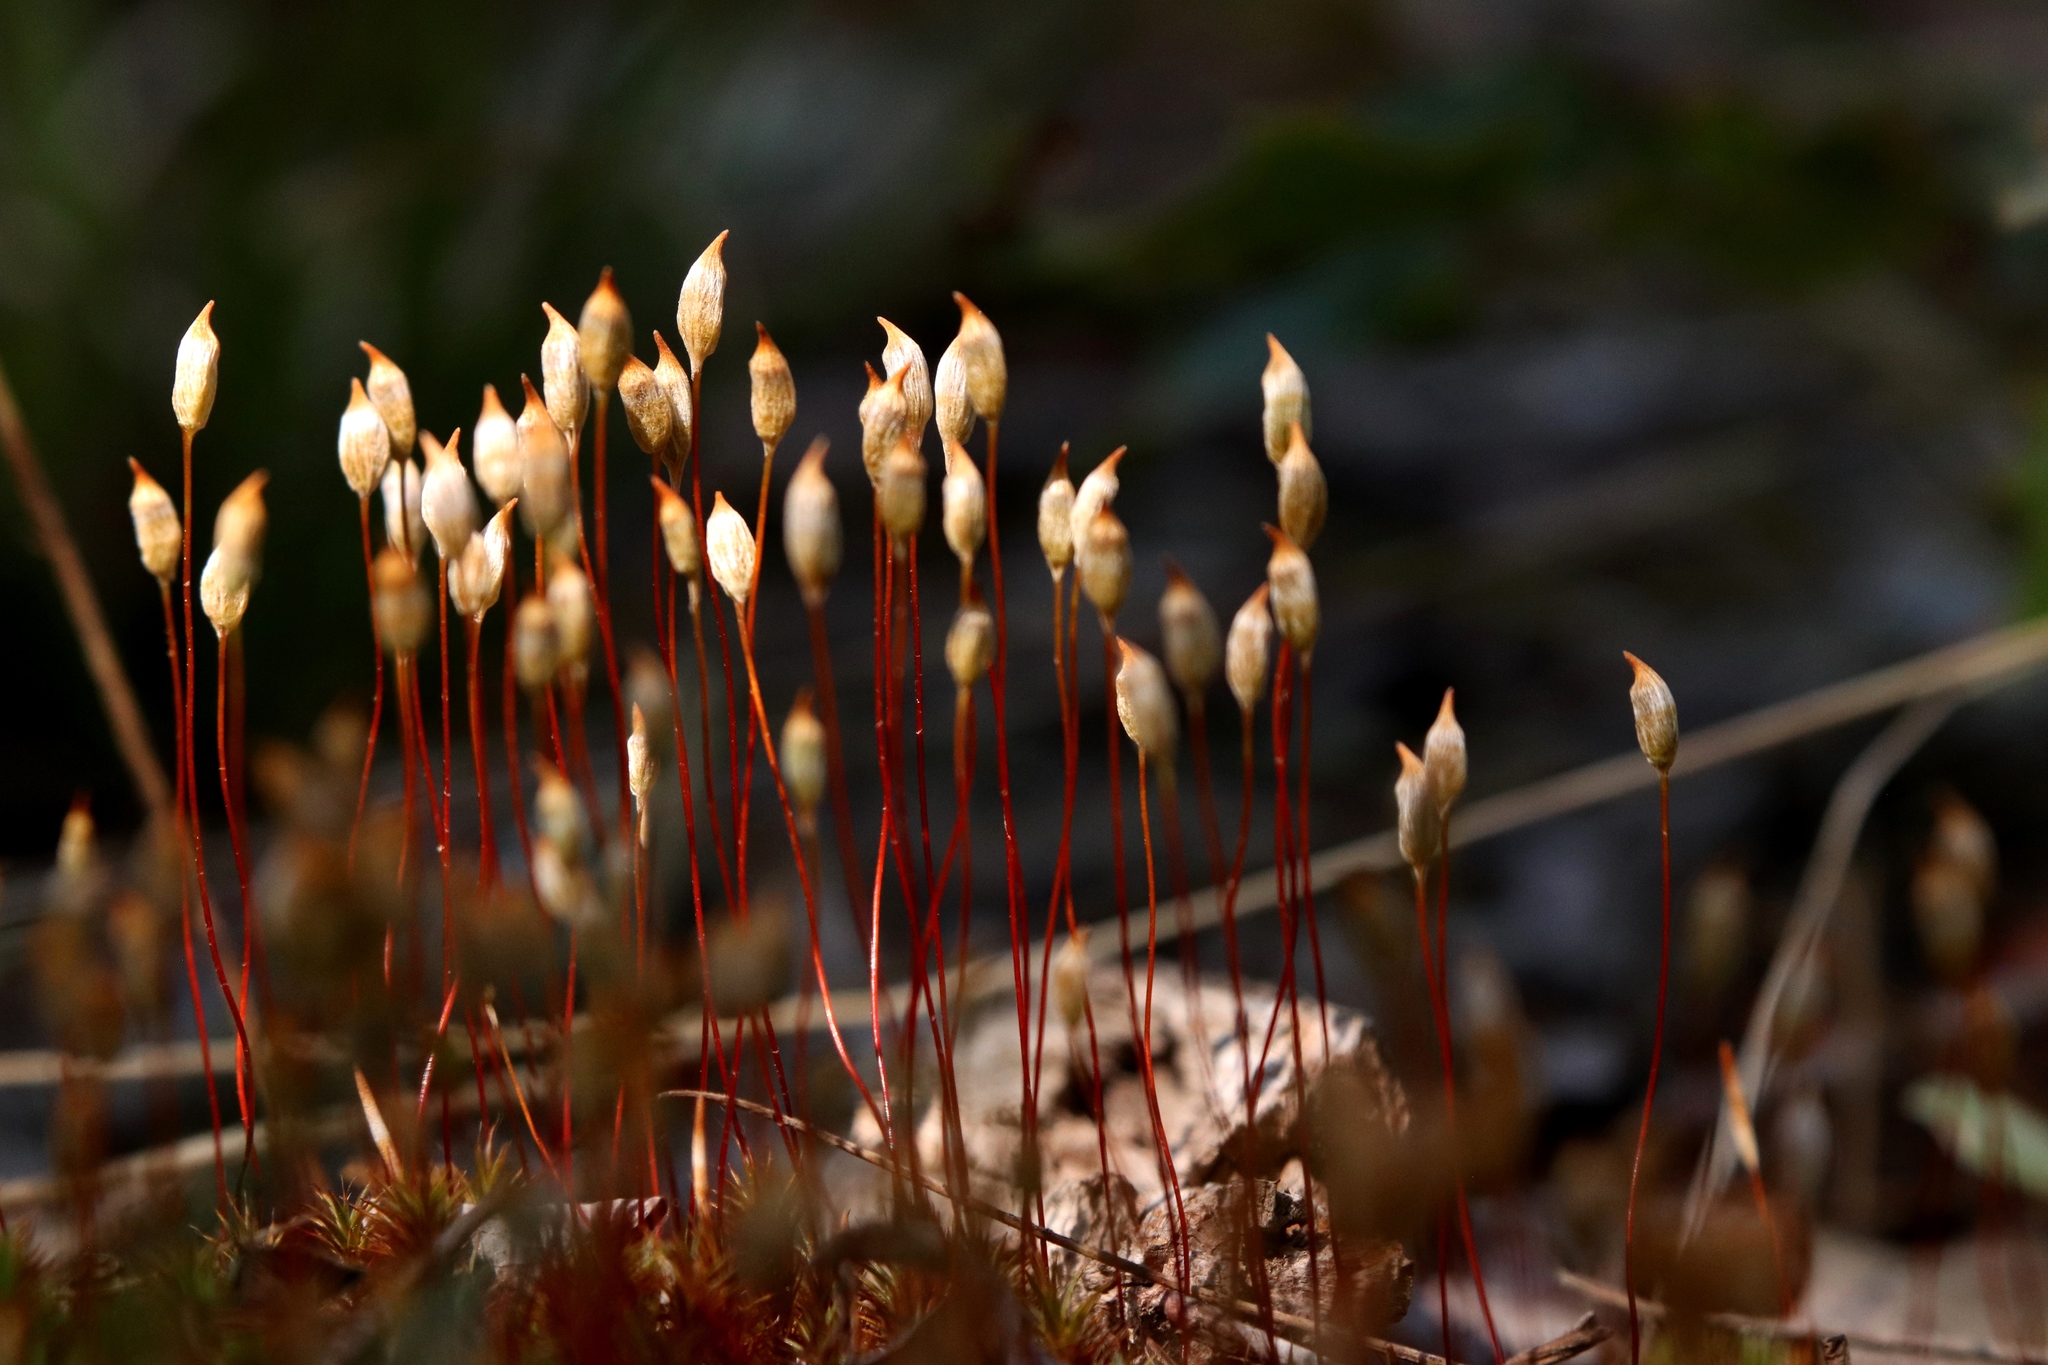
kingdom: Plantae
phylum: Bryophyta
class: Polytrichopsida
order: Polytrichales
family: Polytrichaceae
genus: Polytrichum
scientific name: Polytrichum juniperinum
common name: Juniper haircap moss
